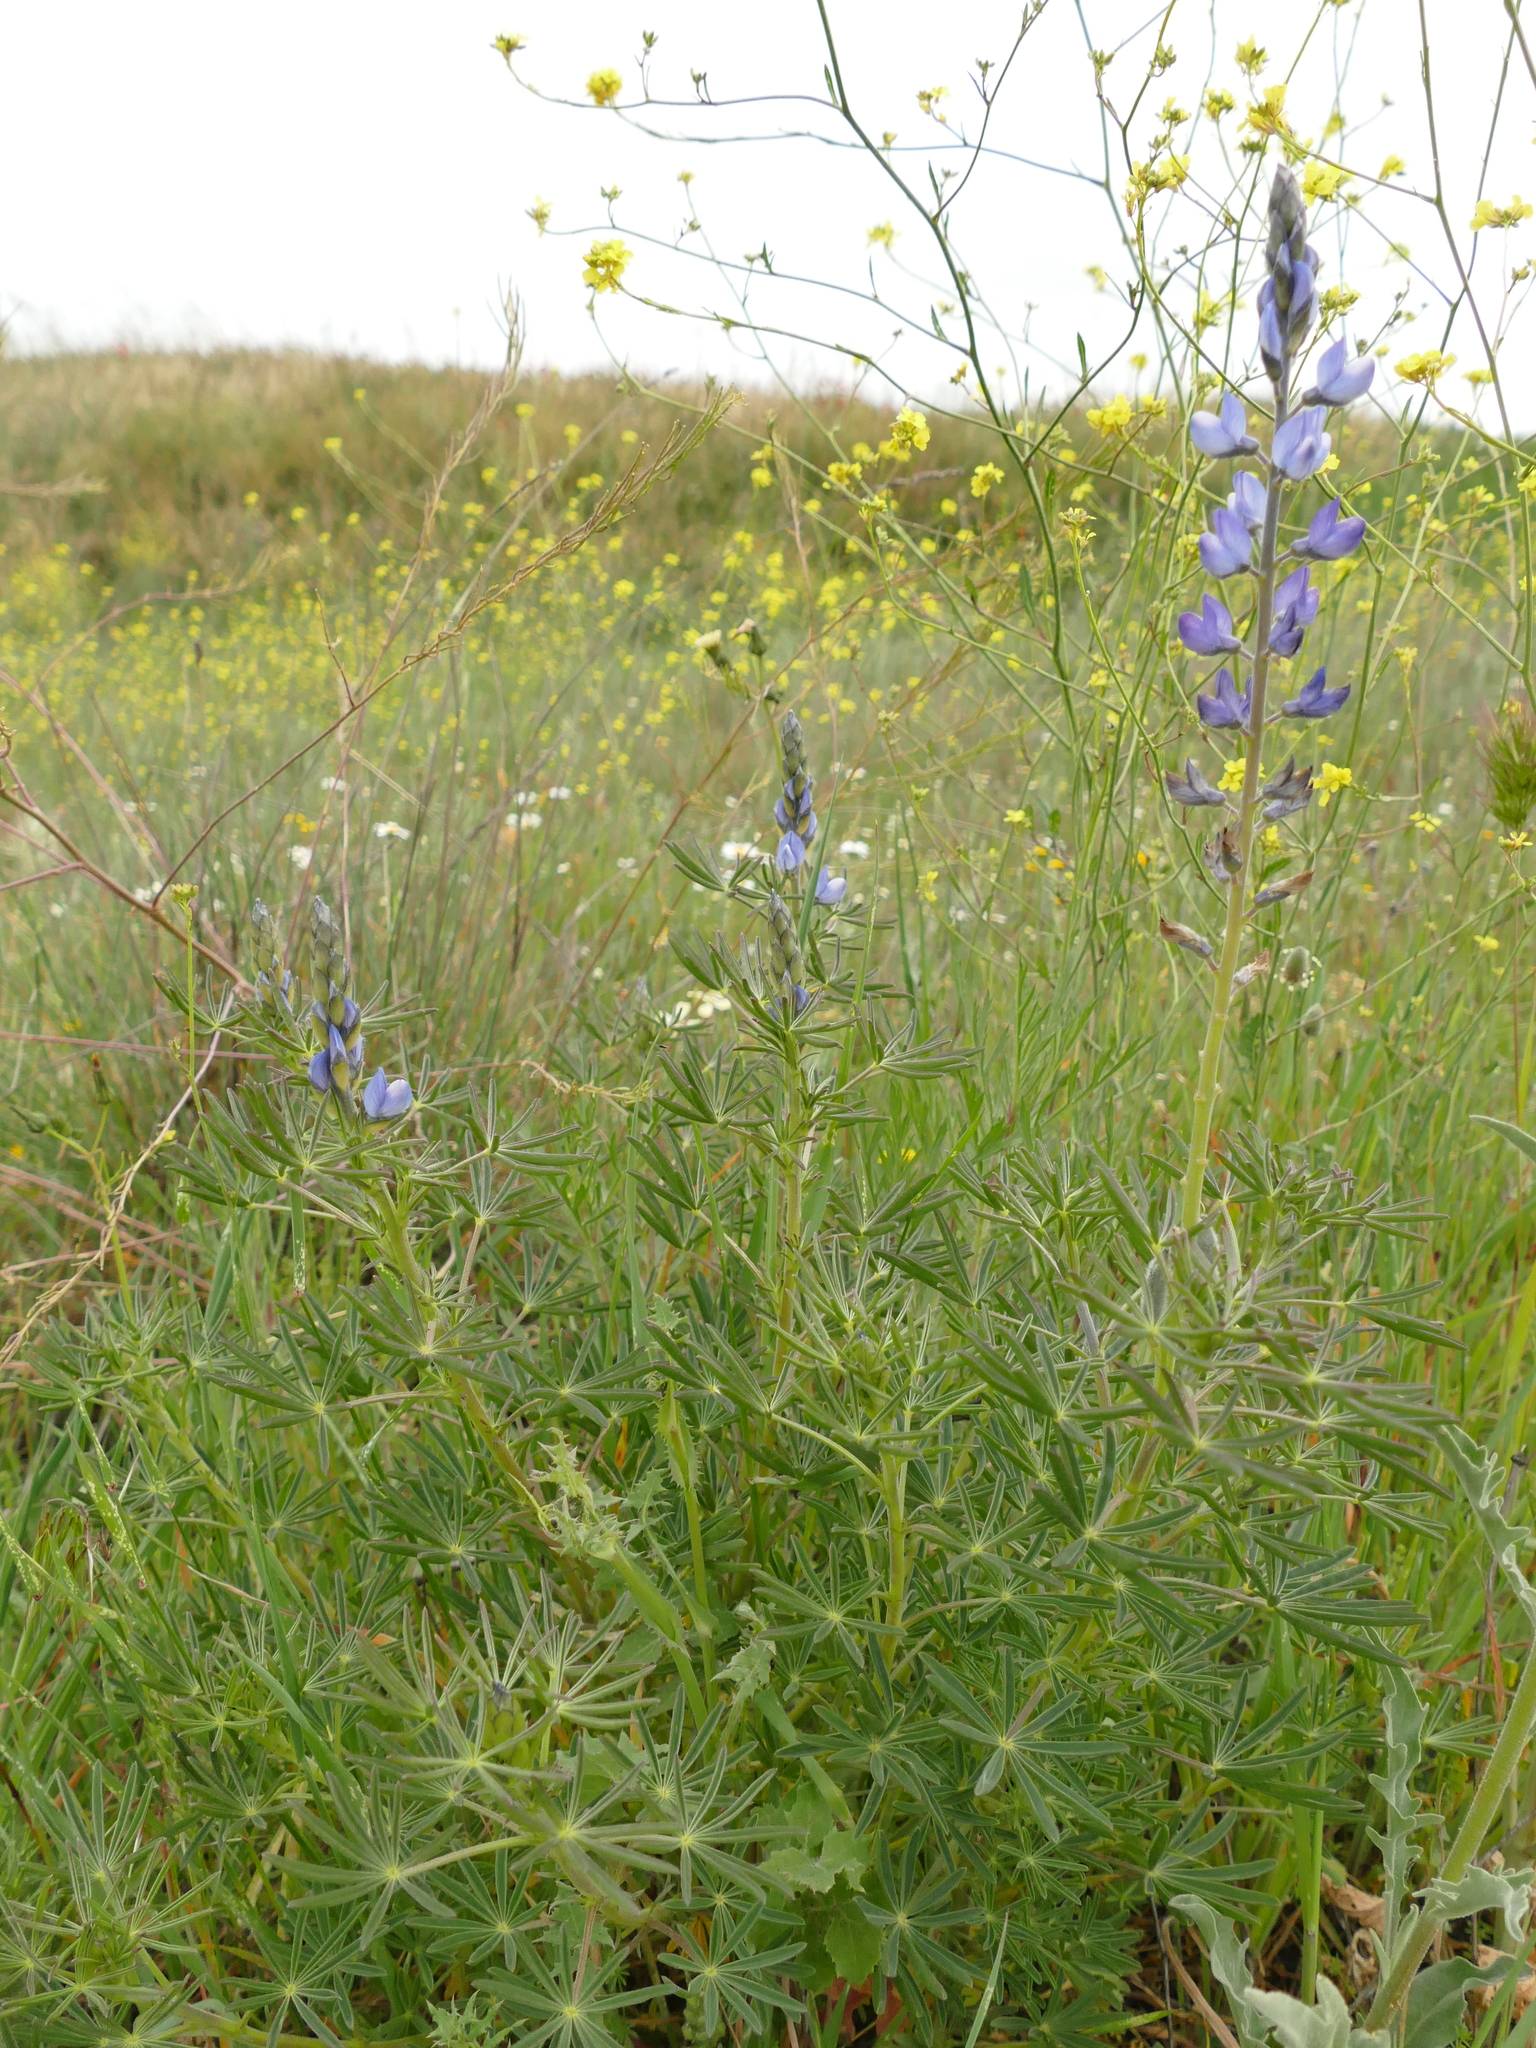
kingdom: Plantae
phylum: Tracheophyta
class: Magnoliopsida
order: Fabales
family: Fabaceae
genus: Lupinus
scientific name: Lupinus angustifolius
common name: Narrow-leaved lupin
